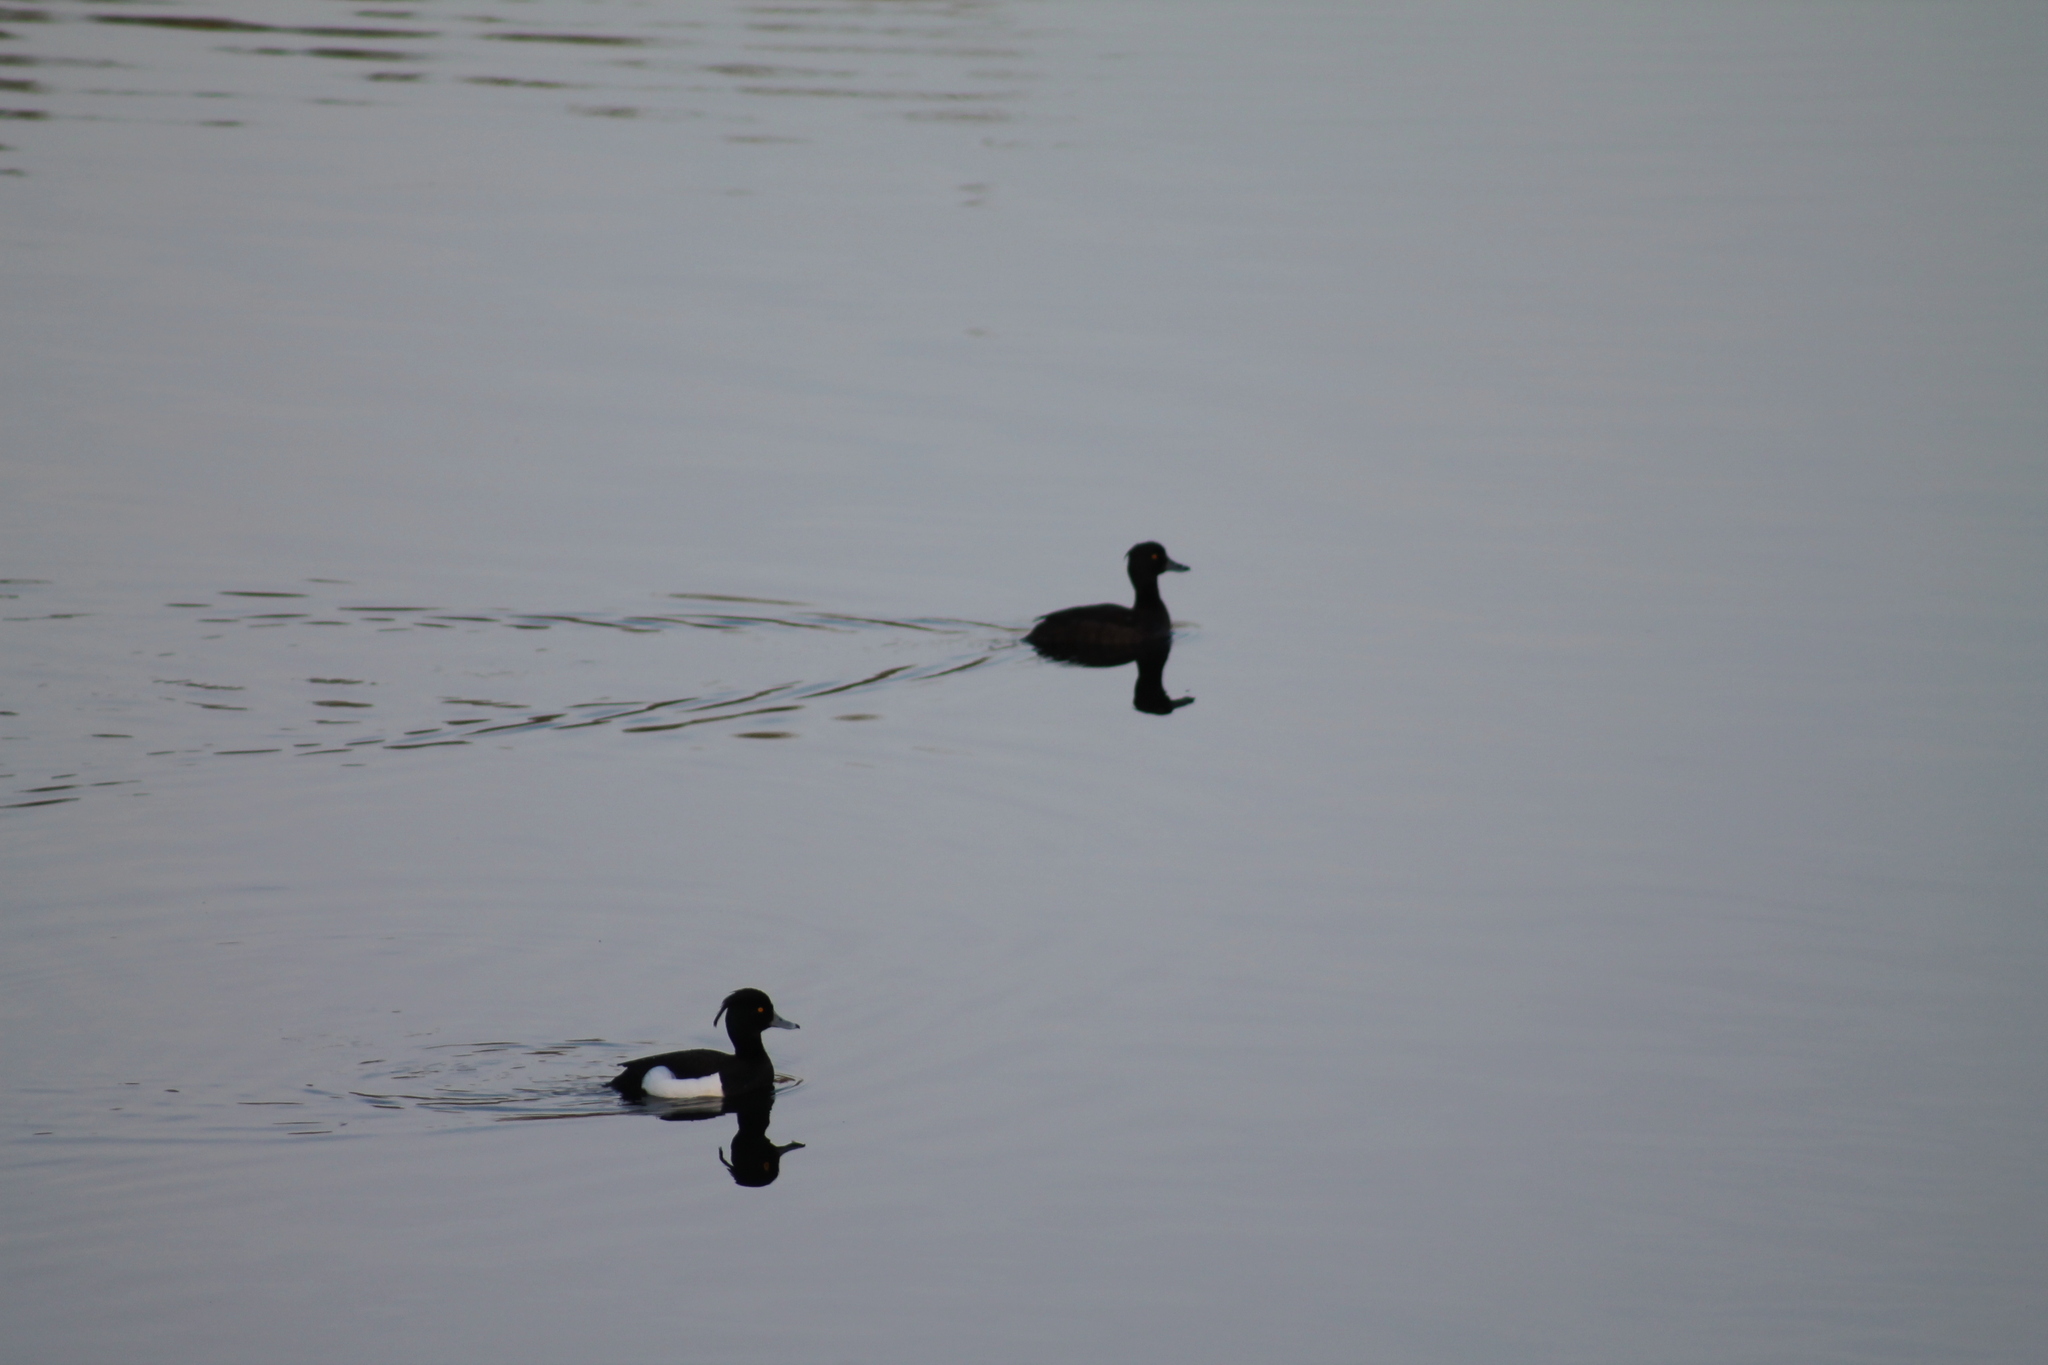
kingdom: Animalia
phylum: Chordata
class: Aves
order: Anseriformes
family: Anatidae
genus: Aythya
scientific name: Aythya fuligula
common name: Tufted duck
